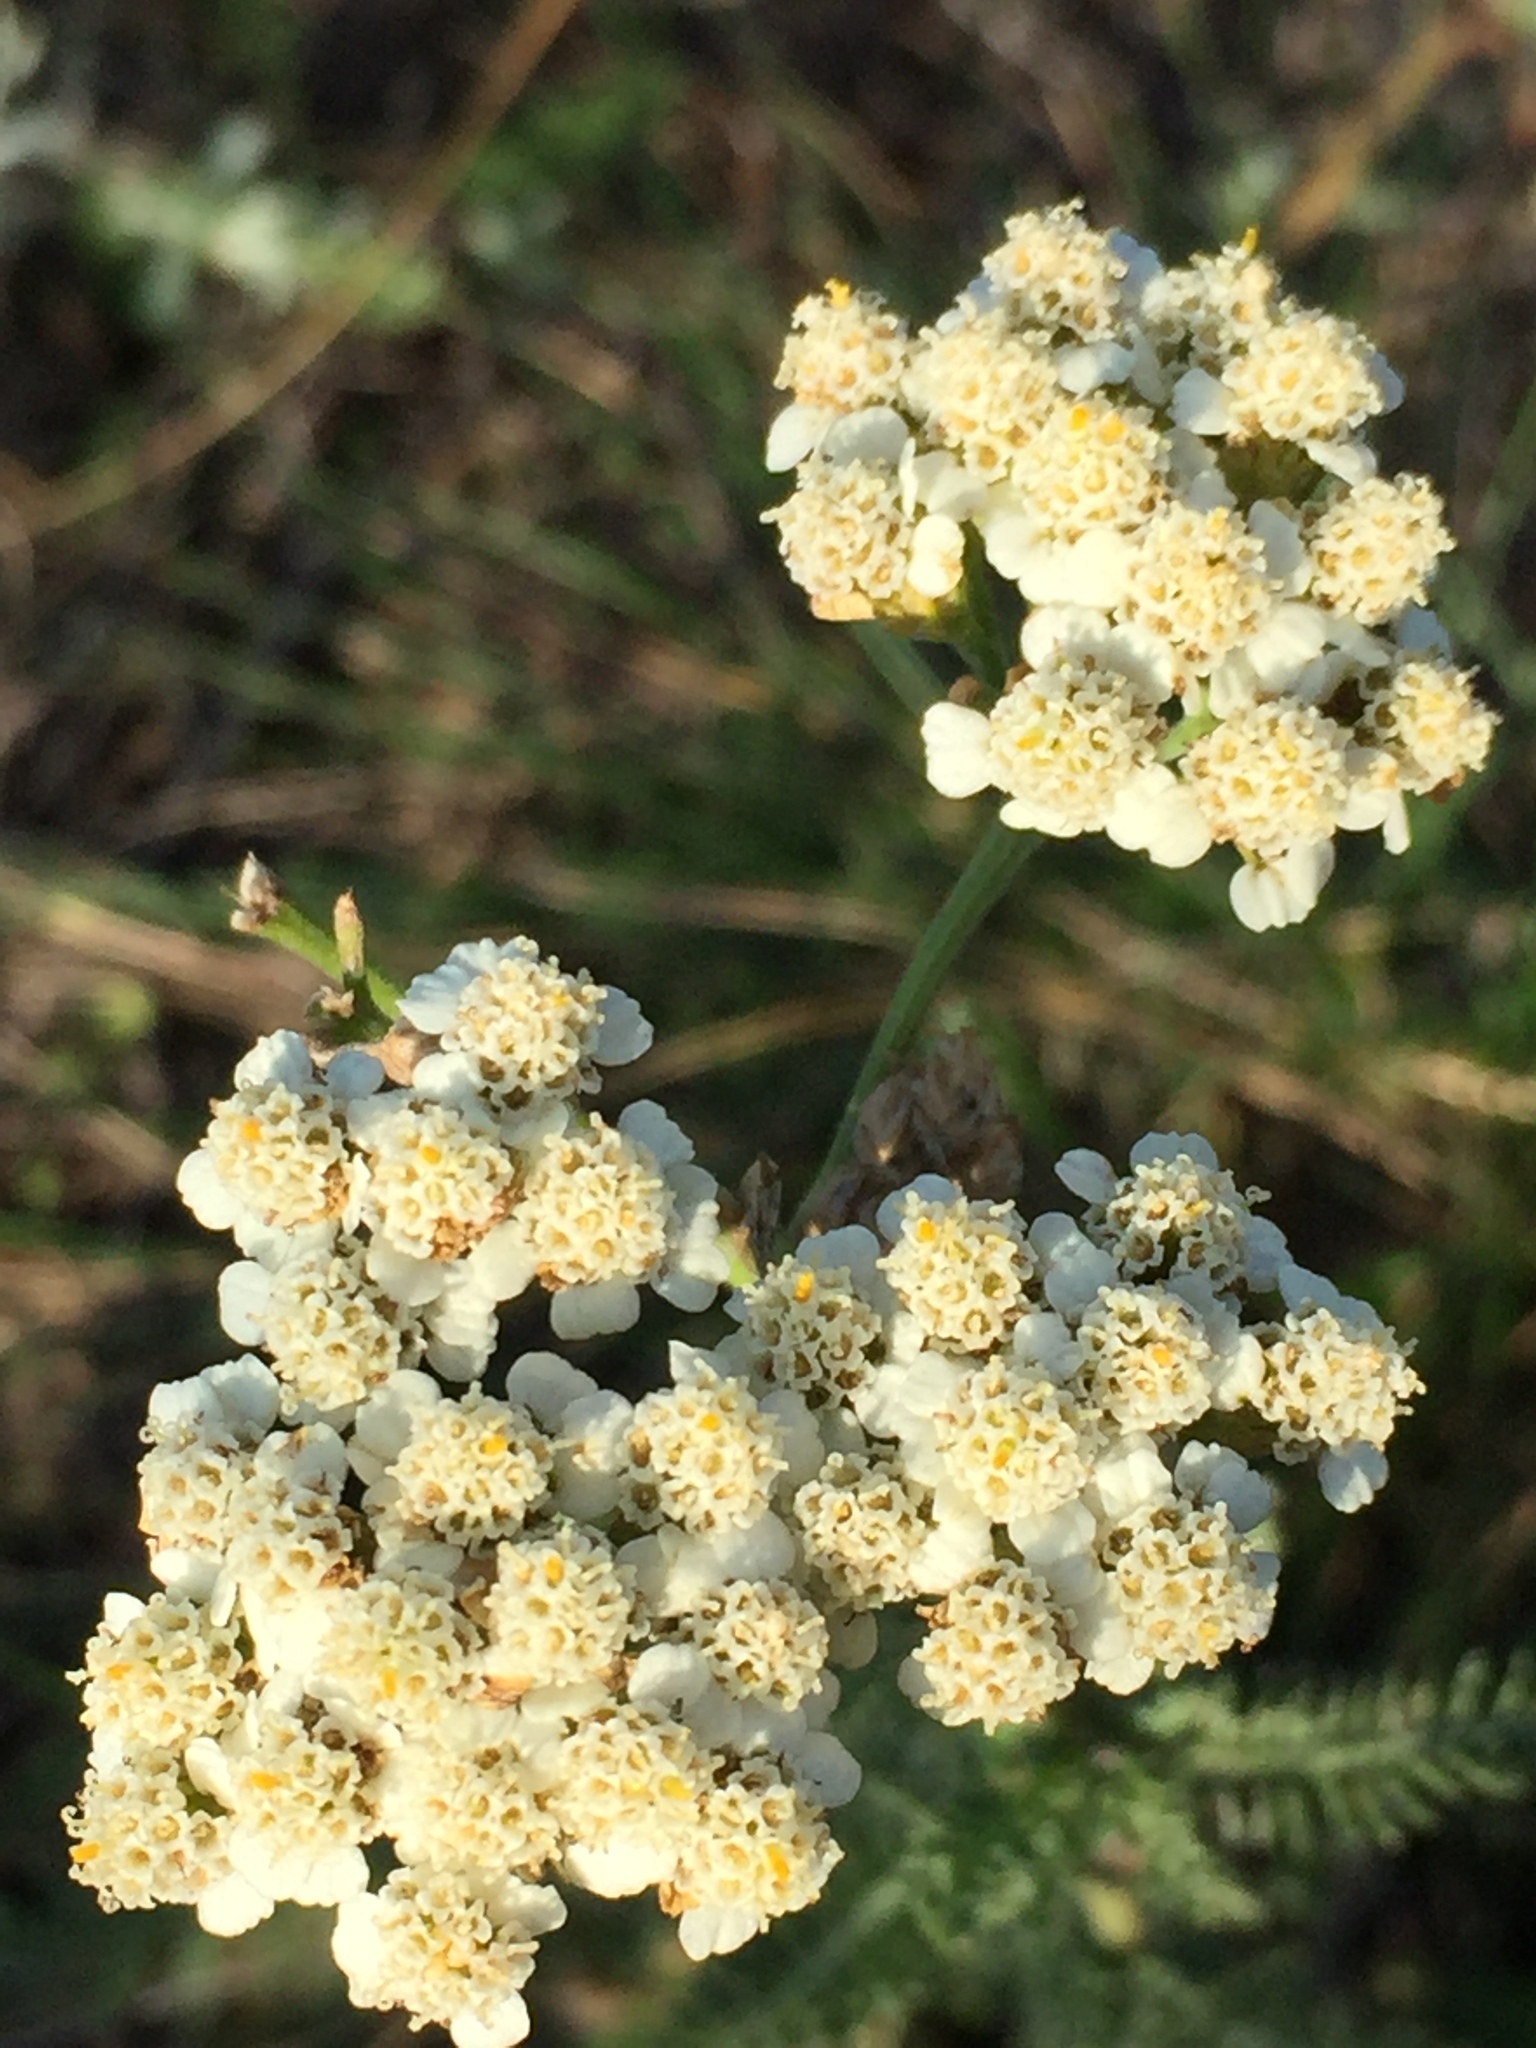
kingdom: Plantae
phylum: Tracheophyta
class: Magnoliopsida
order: Asterales
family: Asteraceae
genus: Achillea
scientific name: Achillea millefolium
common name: Yarrow
